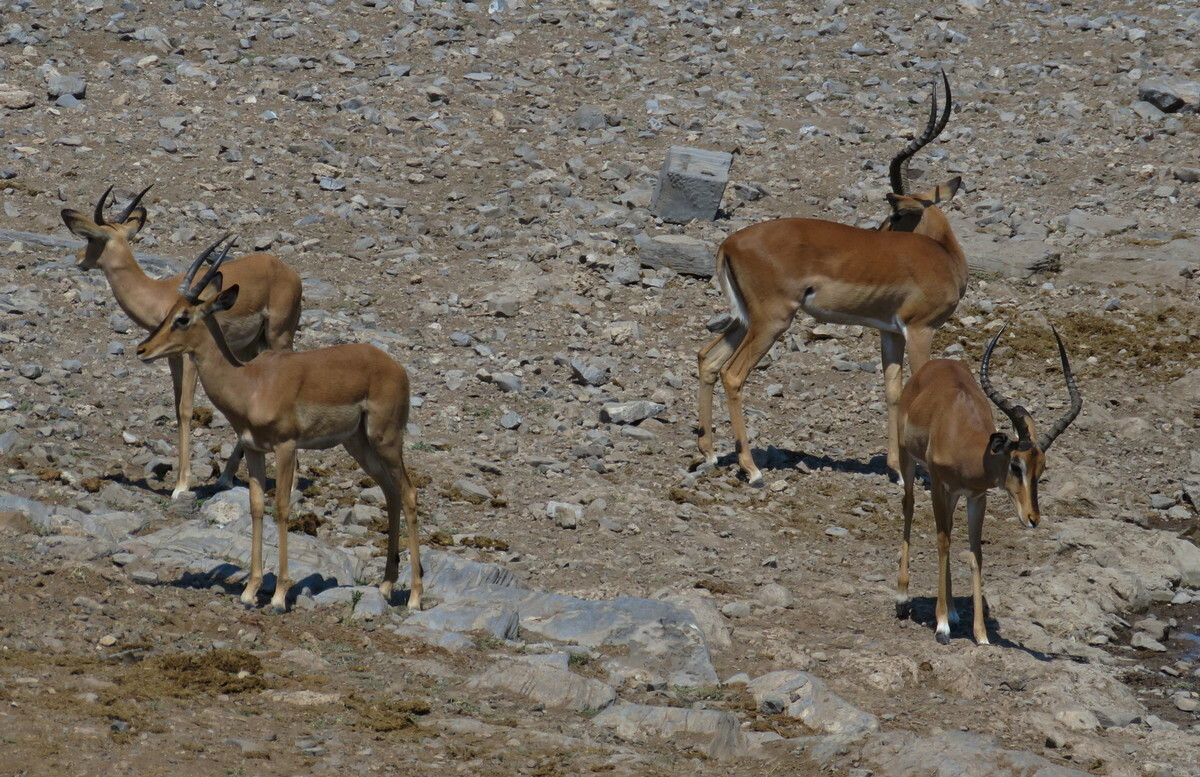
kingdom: Animalia
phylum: Chordata
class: Mammalia
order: Artiodactyla
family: Bovidae
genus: Aepyceros
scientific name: Aepyceros melampus
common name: Impala
